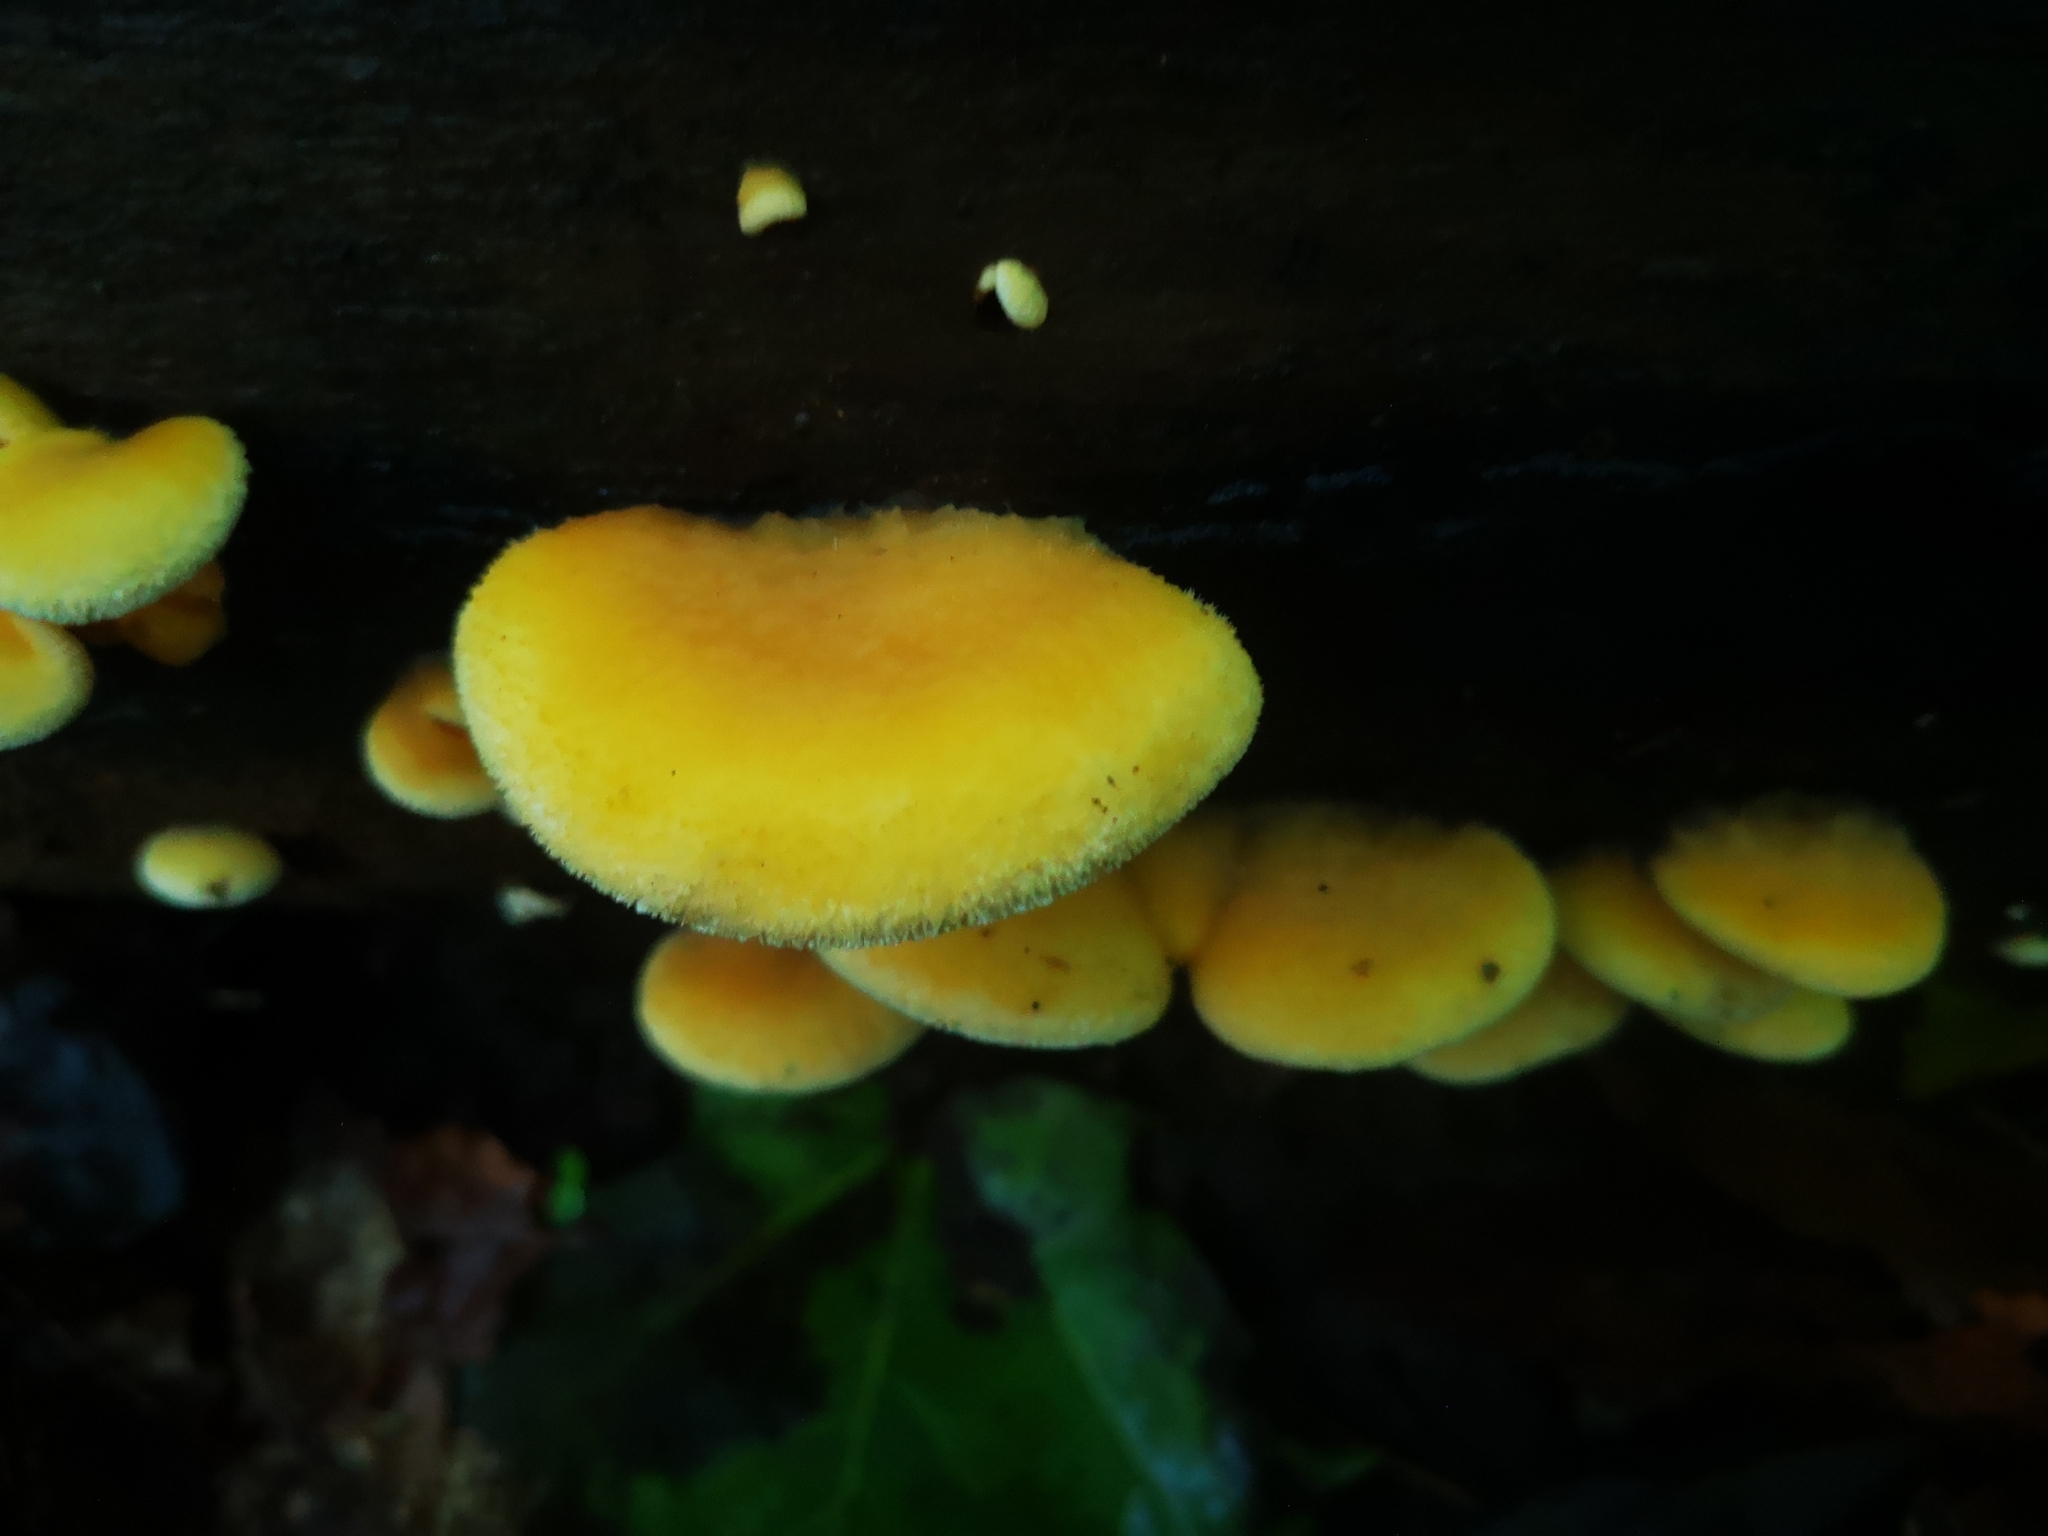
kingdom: Fungi
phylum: Basidiomycota
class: Agaricomycetes
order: Agaricales
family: Phyllotopsidaceae
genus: Phyllotopsis
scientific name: Phyllotopsis nidulans
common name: Orange mock oyster
